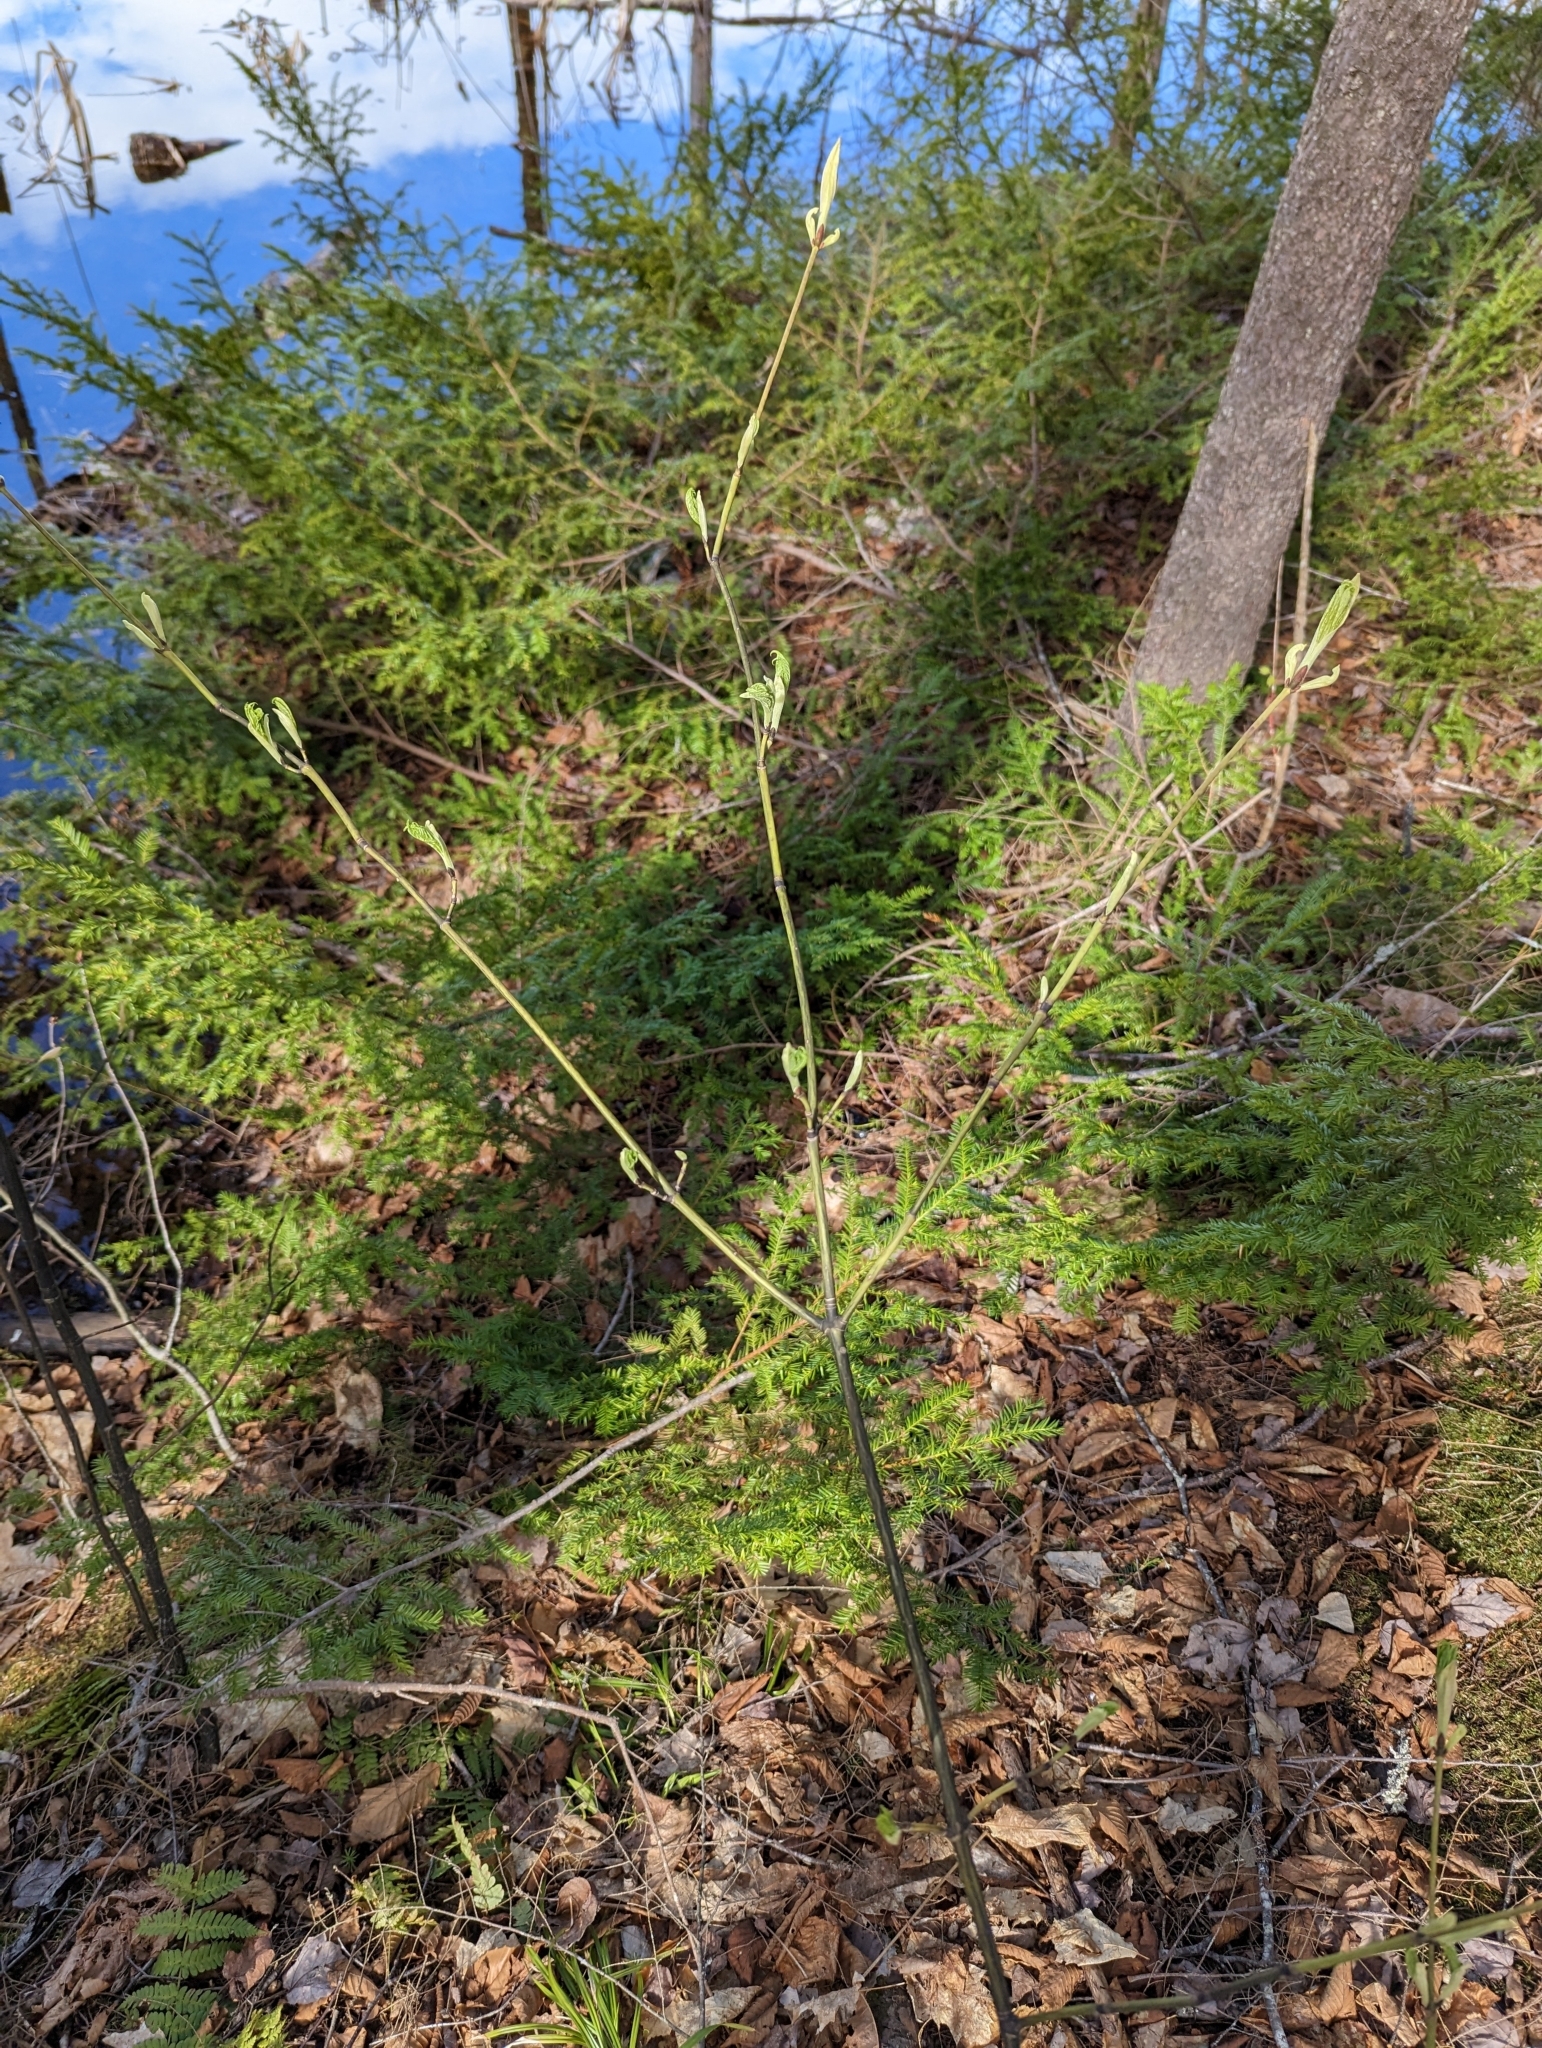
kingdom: Plantae
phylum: Tracheophyta
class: Magnoliopsida
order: Sapindales
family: Sapindaceae
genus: Acer
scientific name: Acer pensylvanicum
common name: Moosewood
